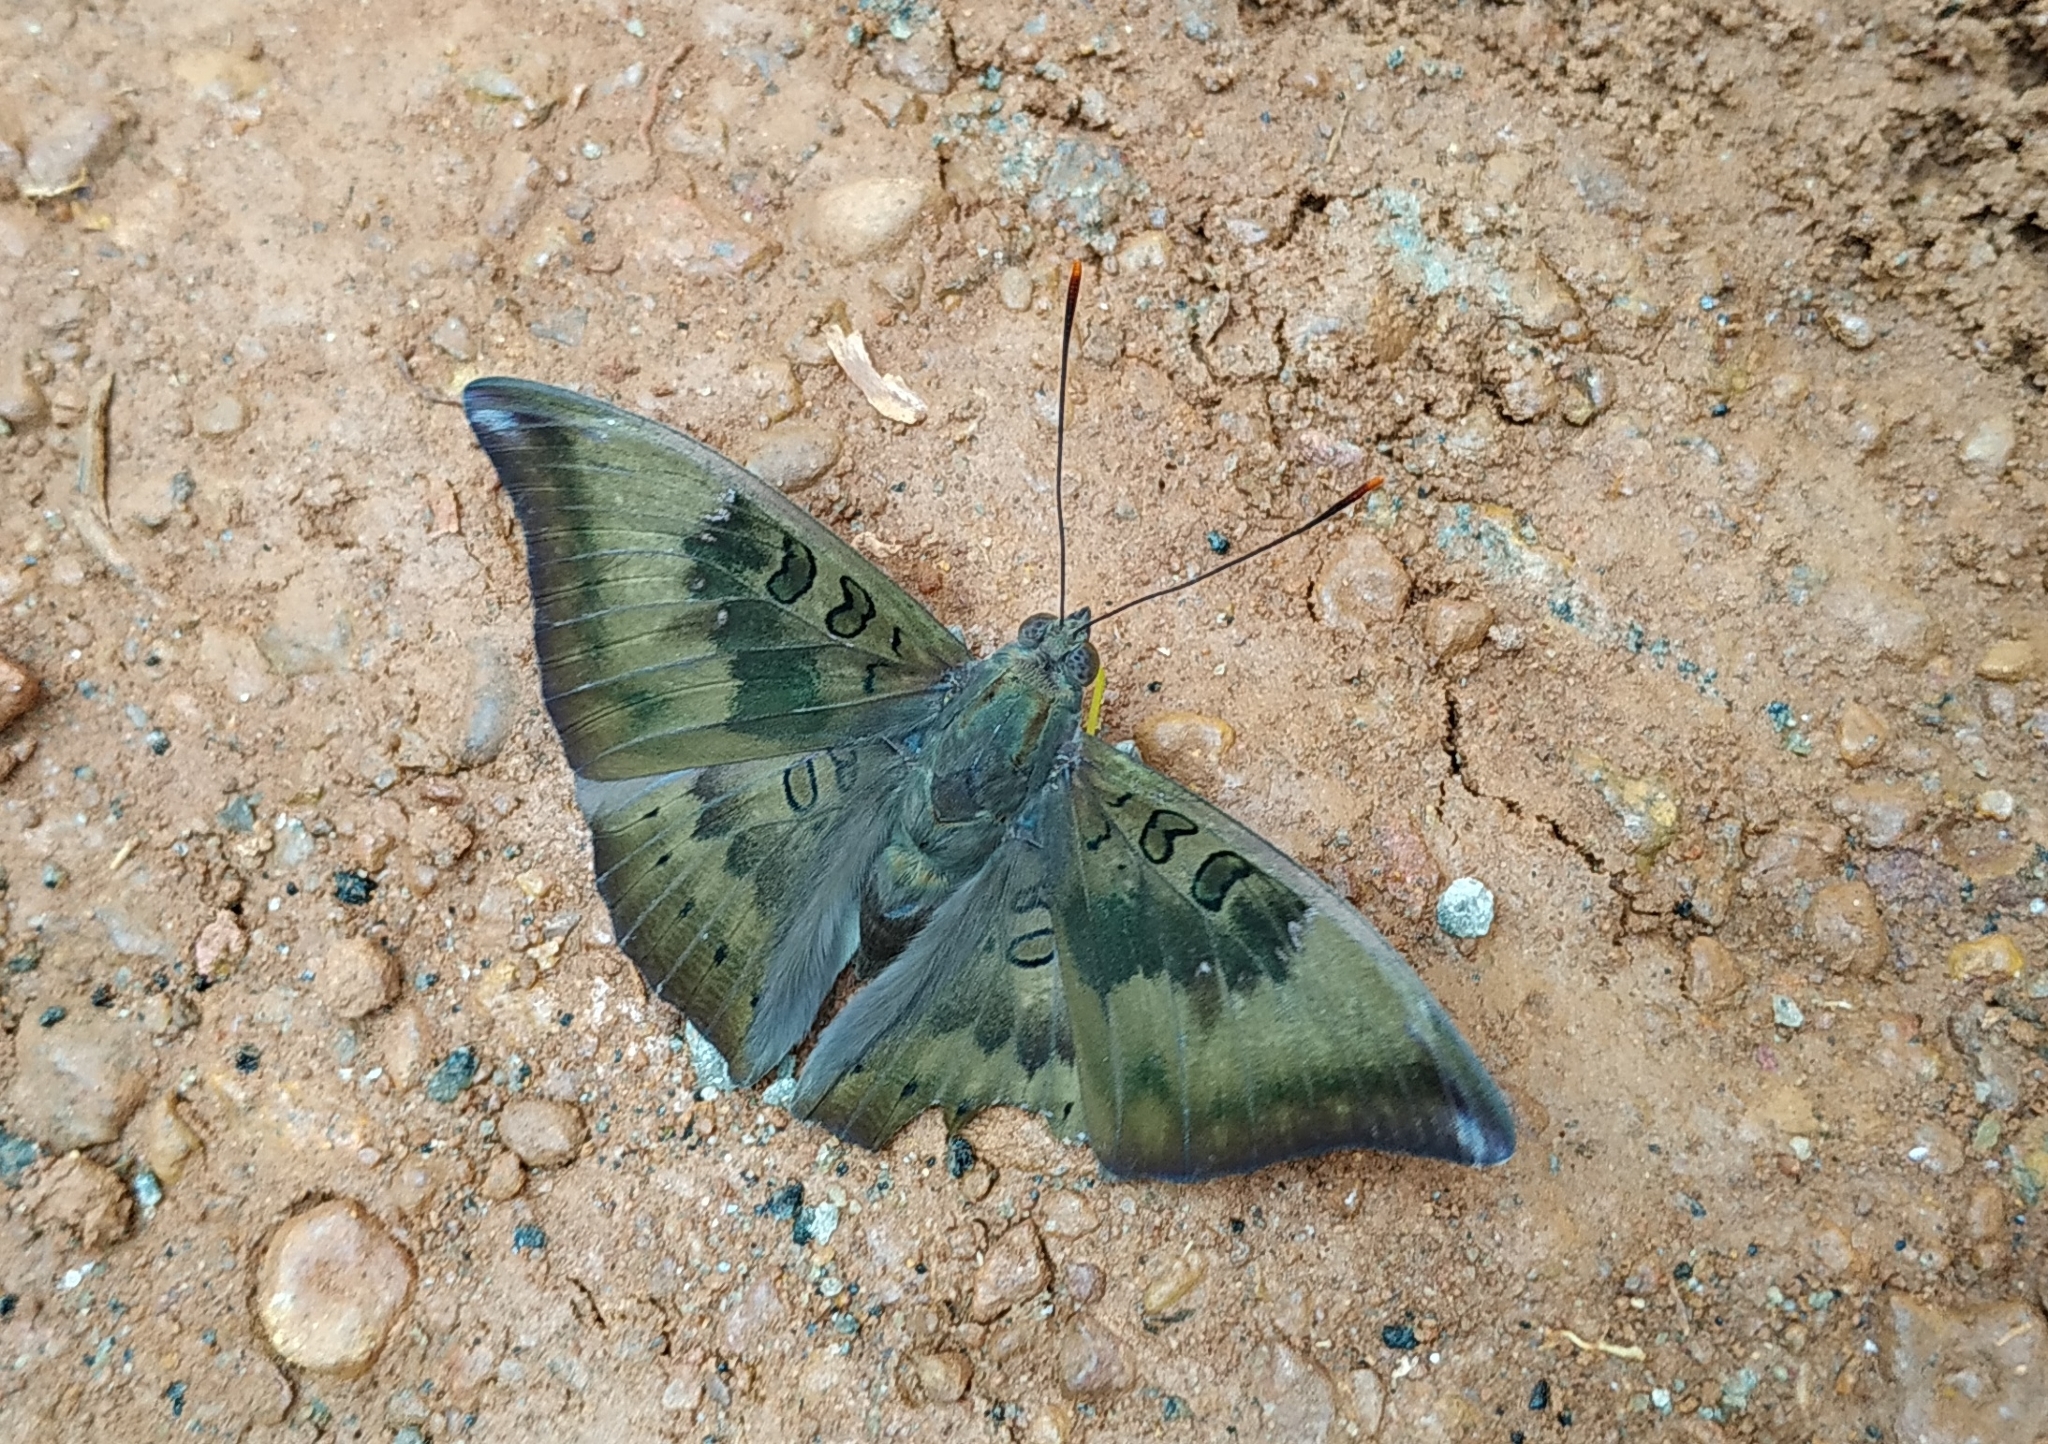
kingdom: Animalia
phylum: Arthropoda
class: Insecta
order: Lepidoptera
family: Nymphalidae
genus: Euthalia
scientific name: Euthalia aconthea
